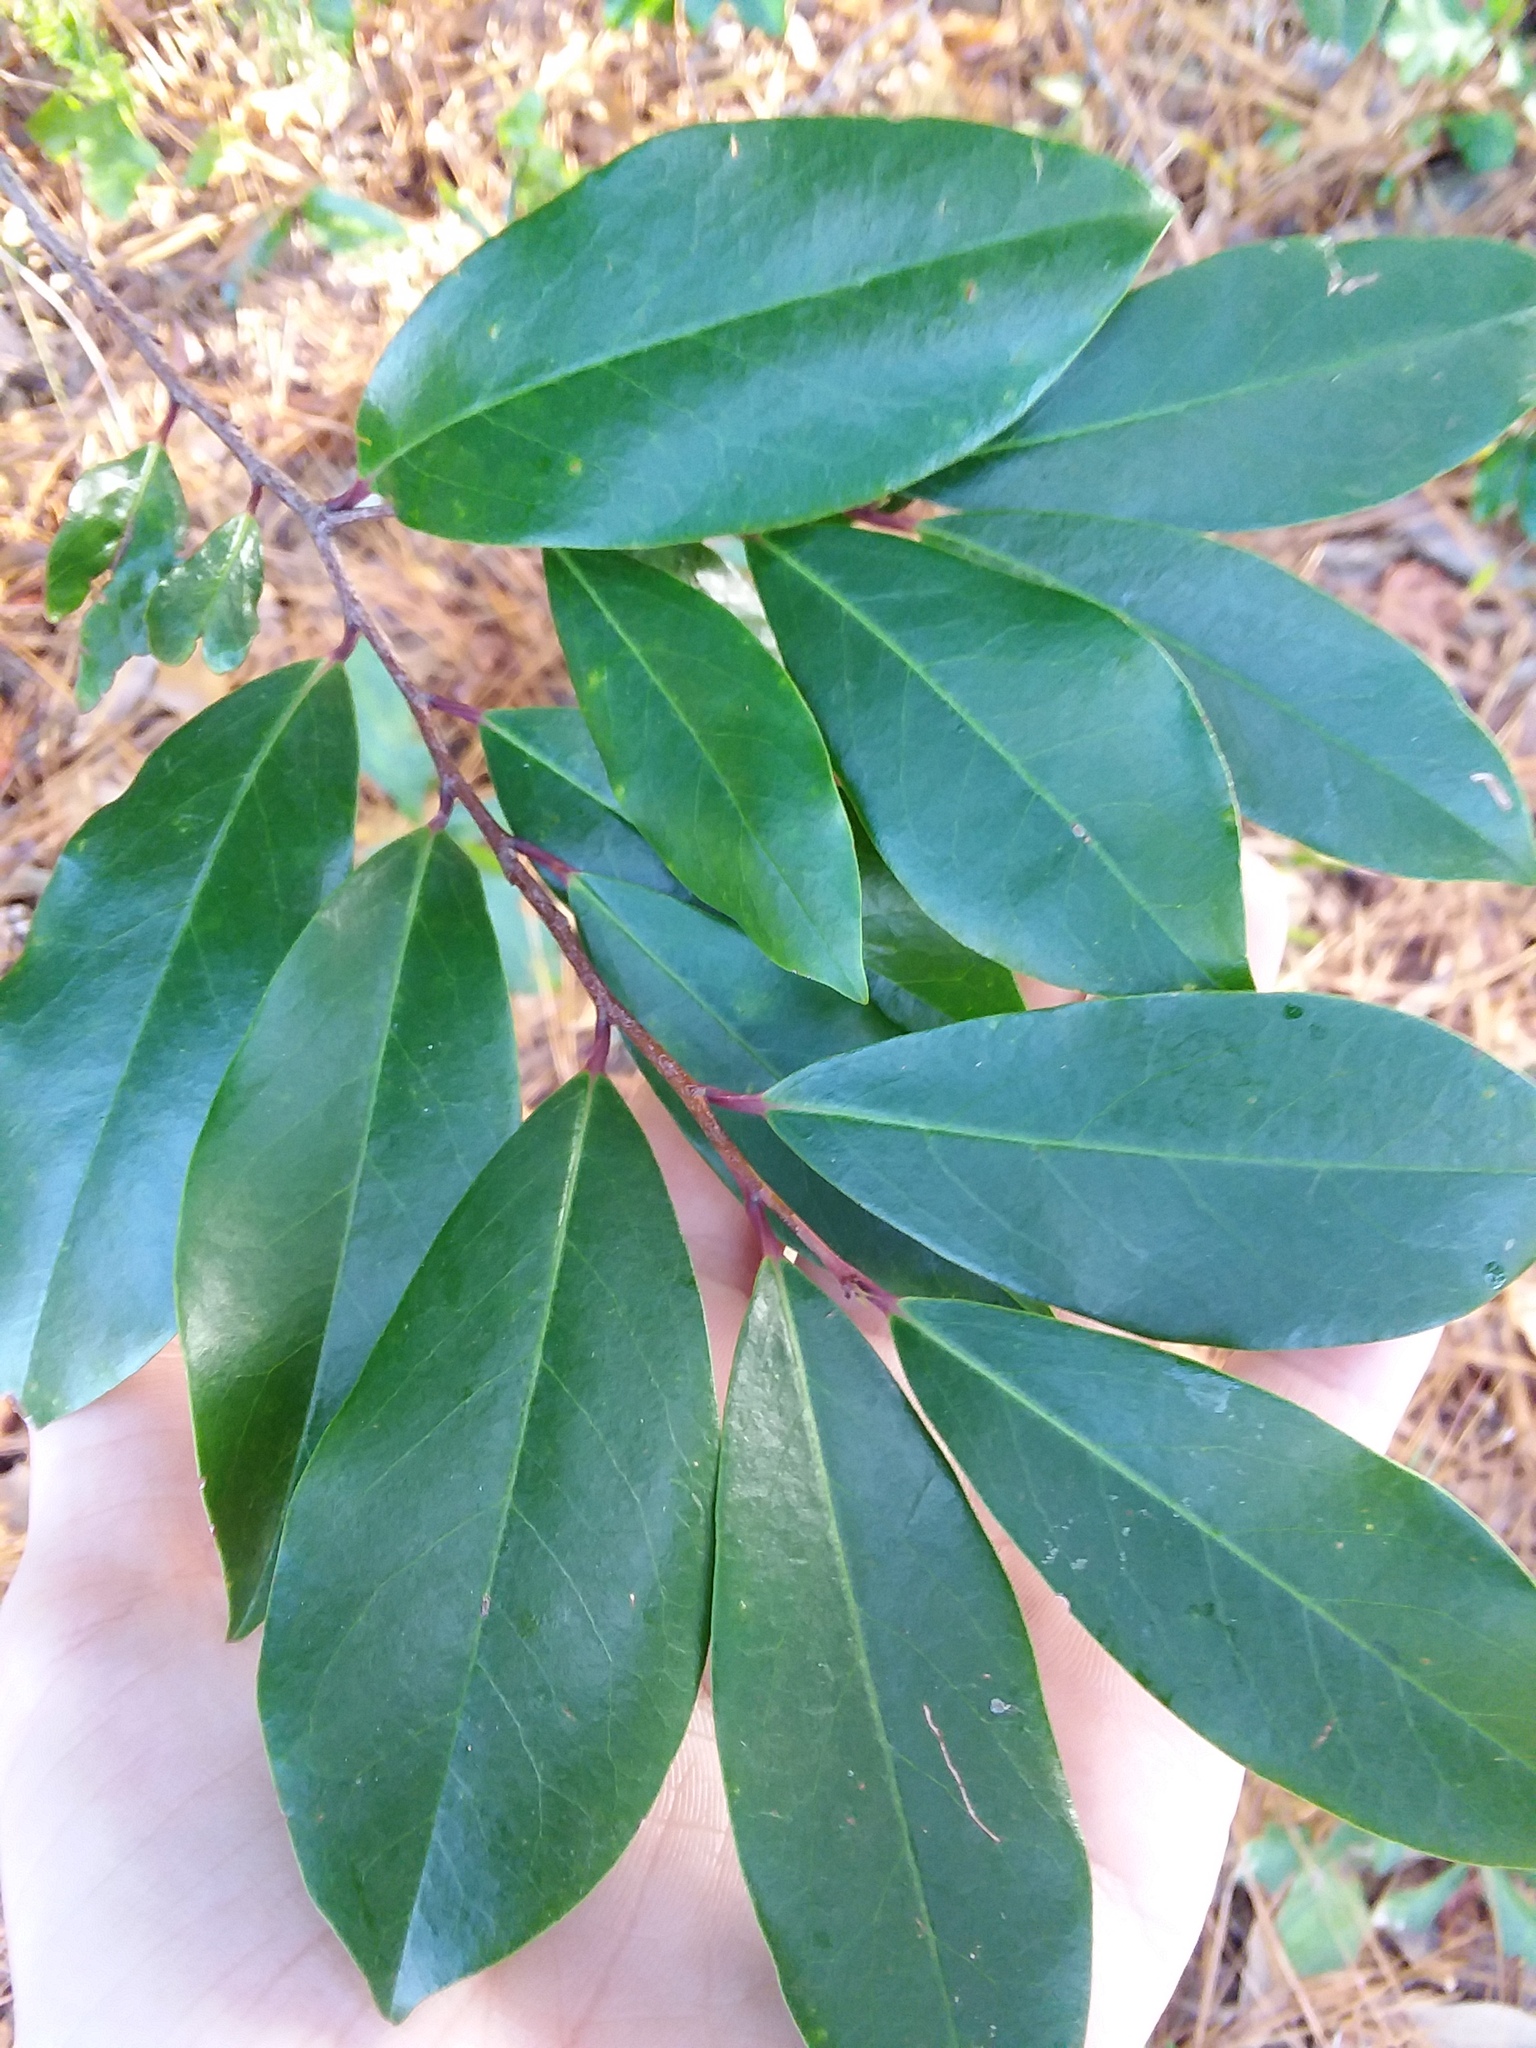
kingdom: Plantae
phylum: Tracheophyta
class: Magnoliopsida
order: Rosales
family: Rosaceae
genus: Prunus
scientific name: Prunus caroliniana
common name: Carolina laurel cherry
